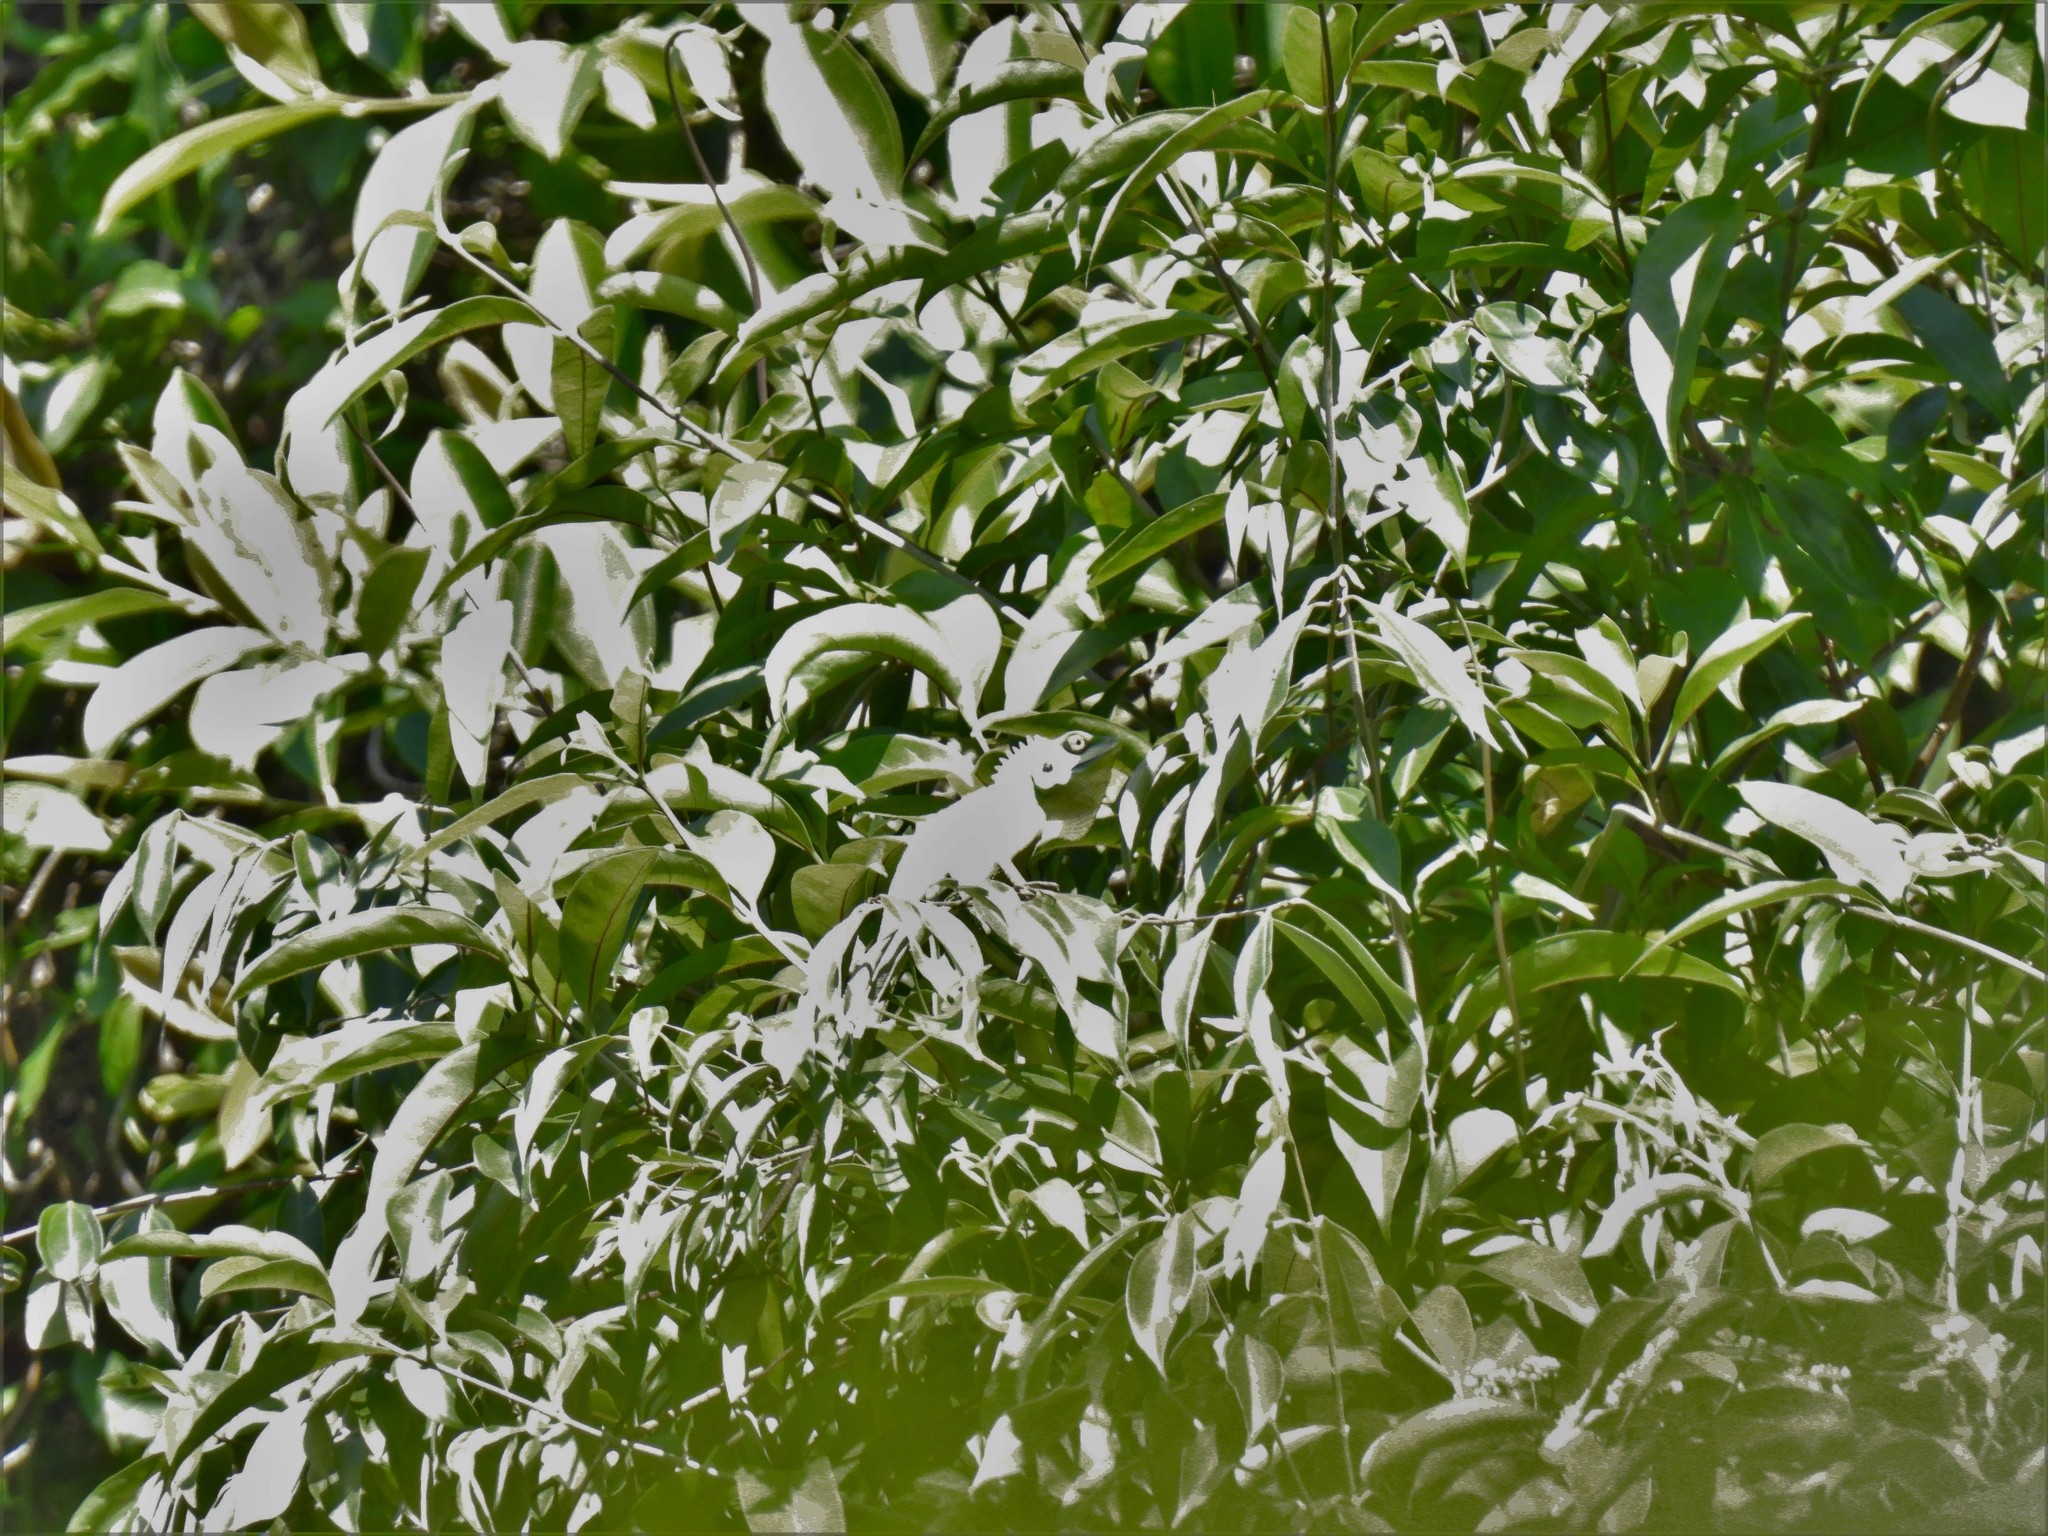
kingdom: Animalia
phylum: Chordata
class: Squamata
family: Agamidae
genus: Bronchocela
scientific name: Bronchocela cristatella
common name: Green crested lizard
